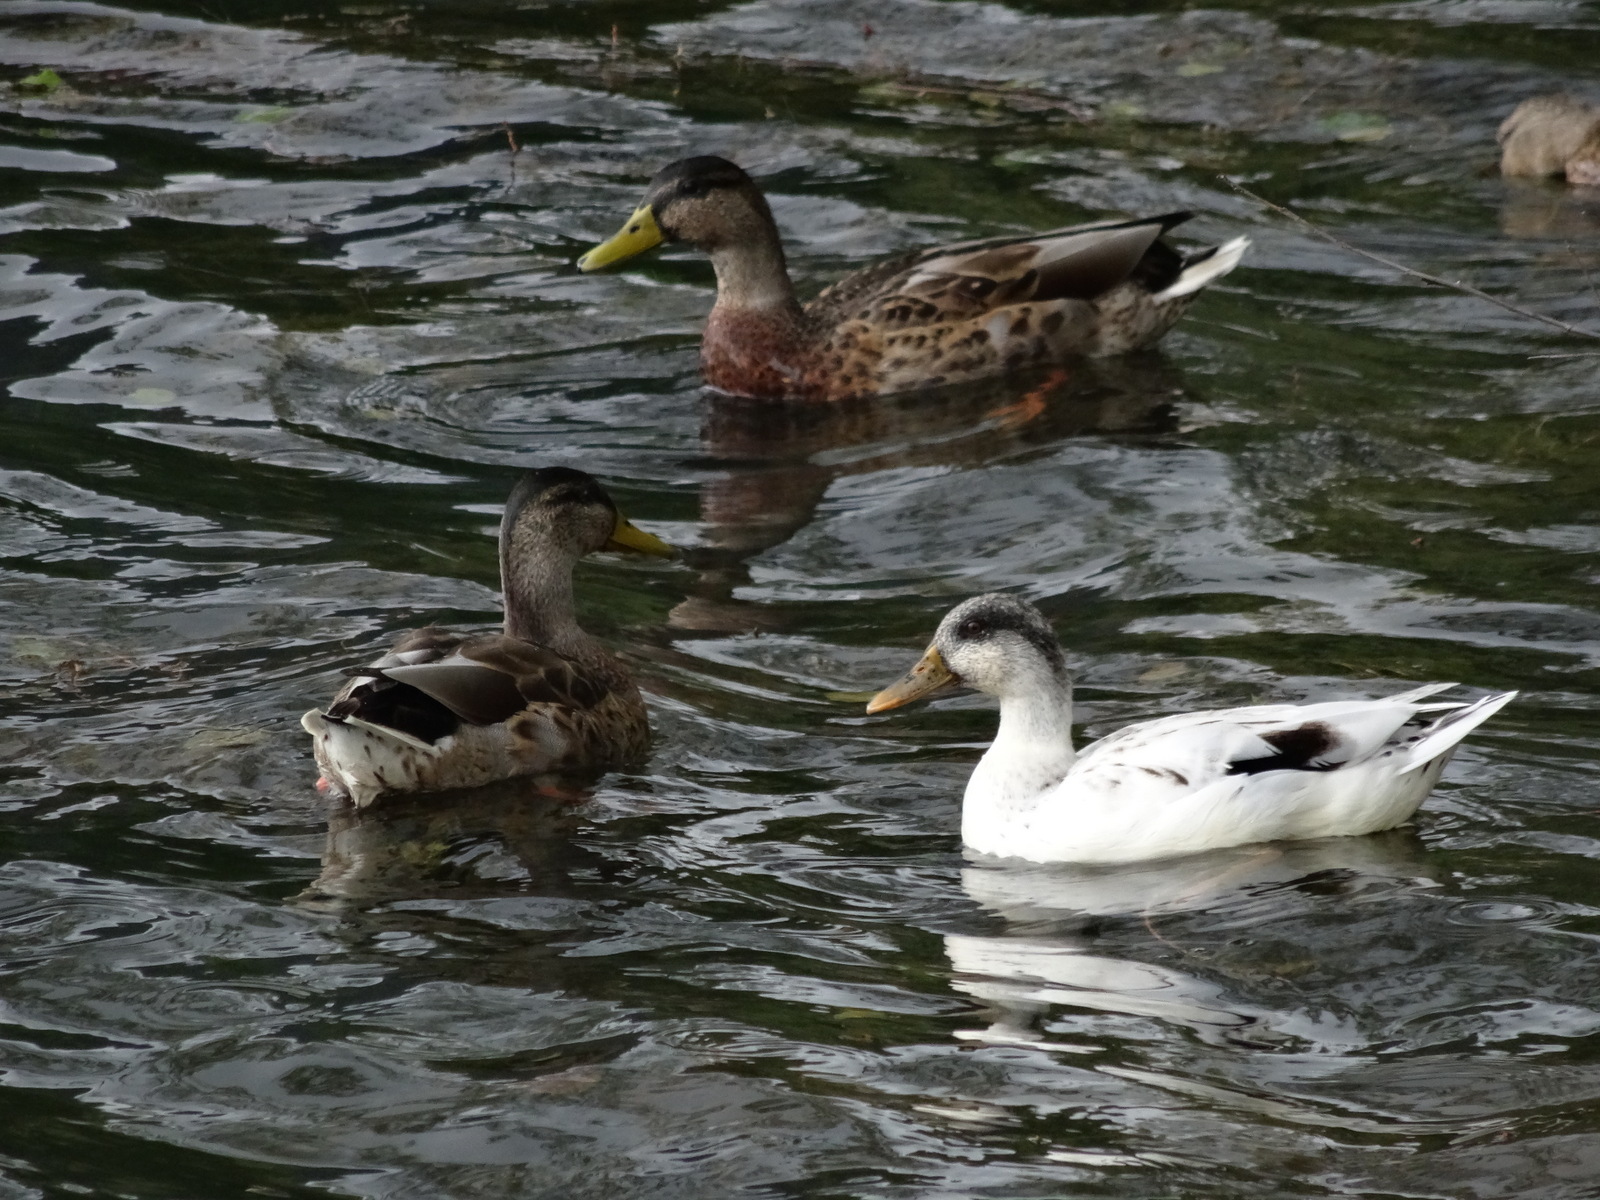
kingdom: Animalia
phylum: Chordata
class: Aves
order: Anseriformes
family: Anatidae
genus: Anas
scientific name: Anas platyrhynchos
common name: Mallard
